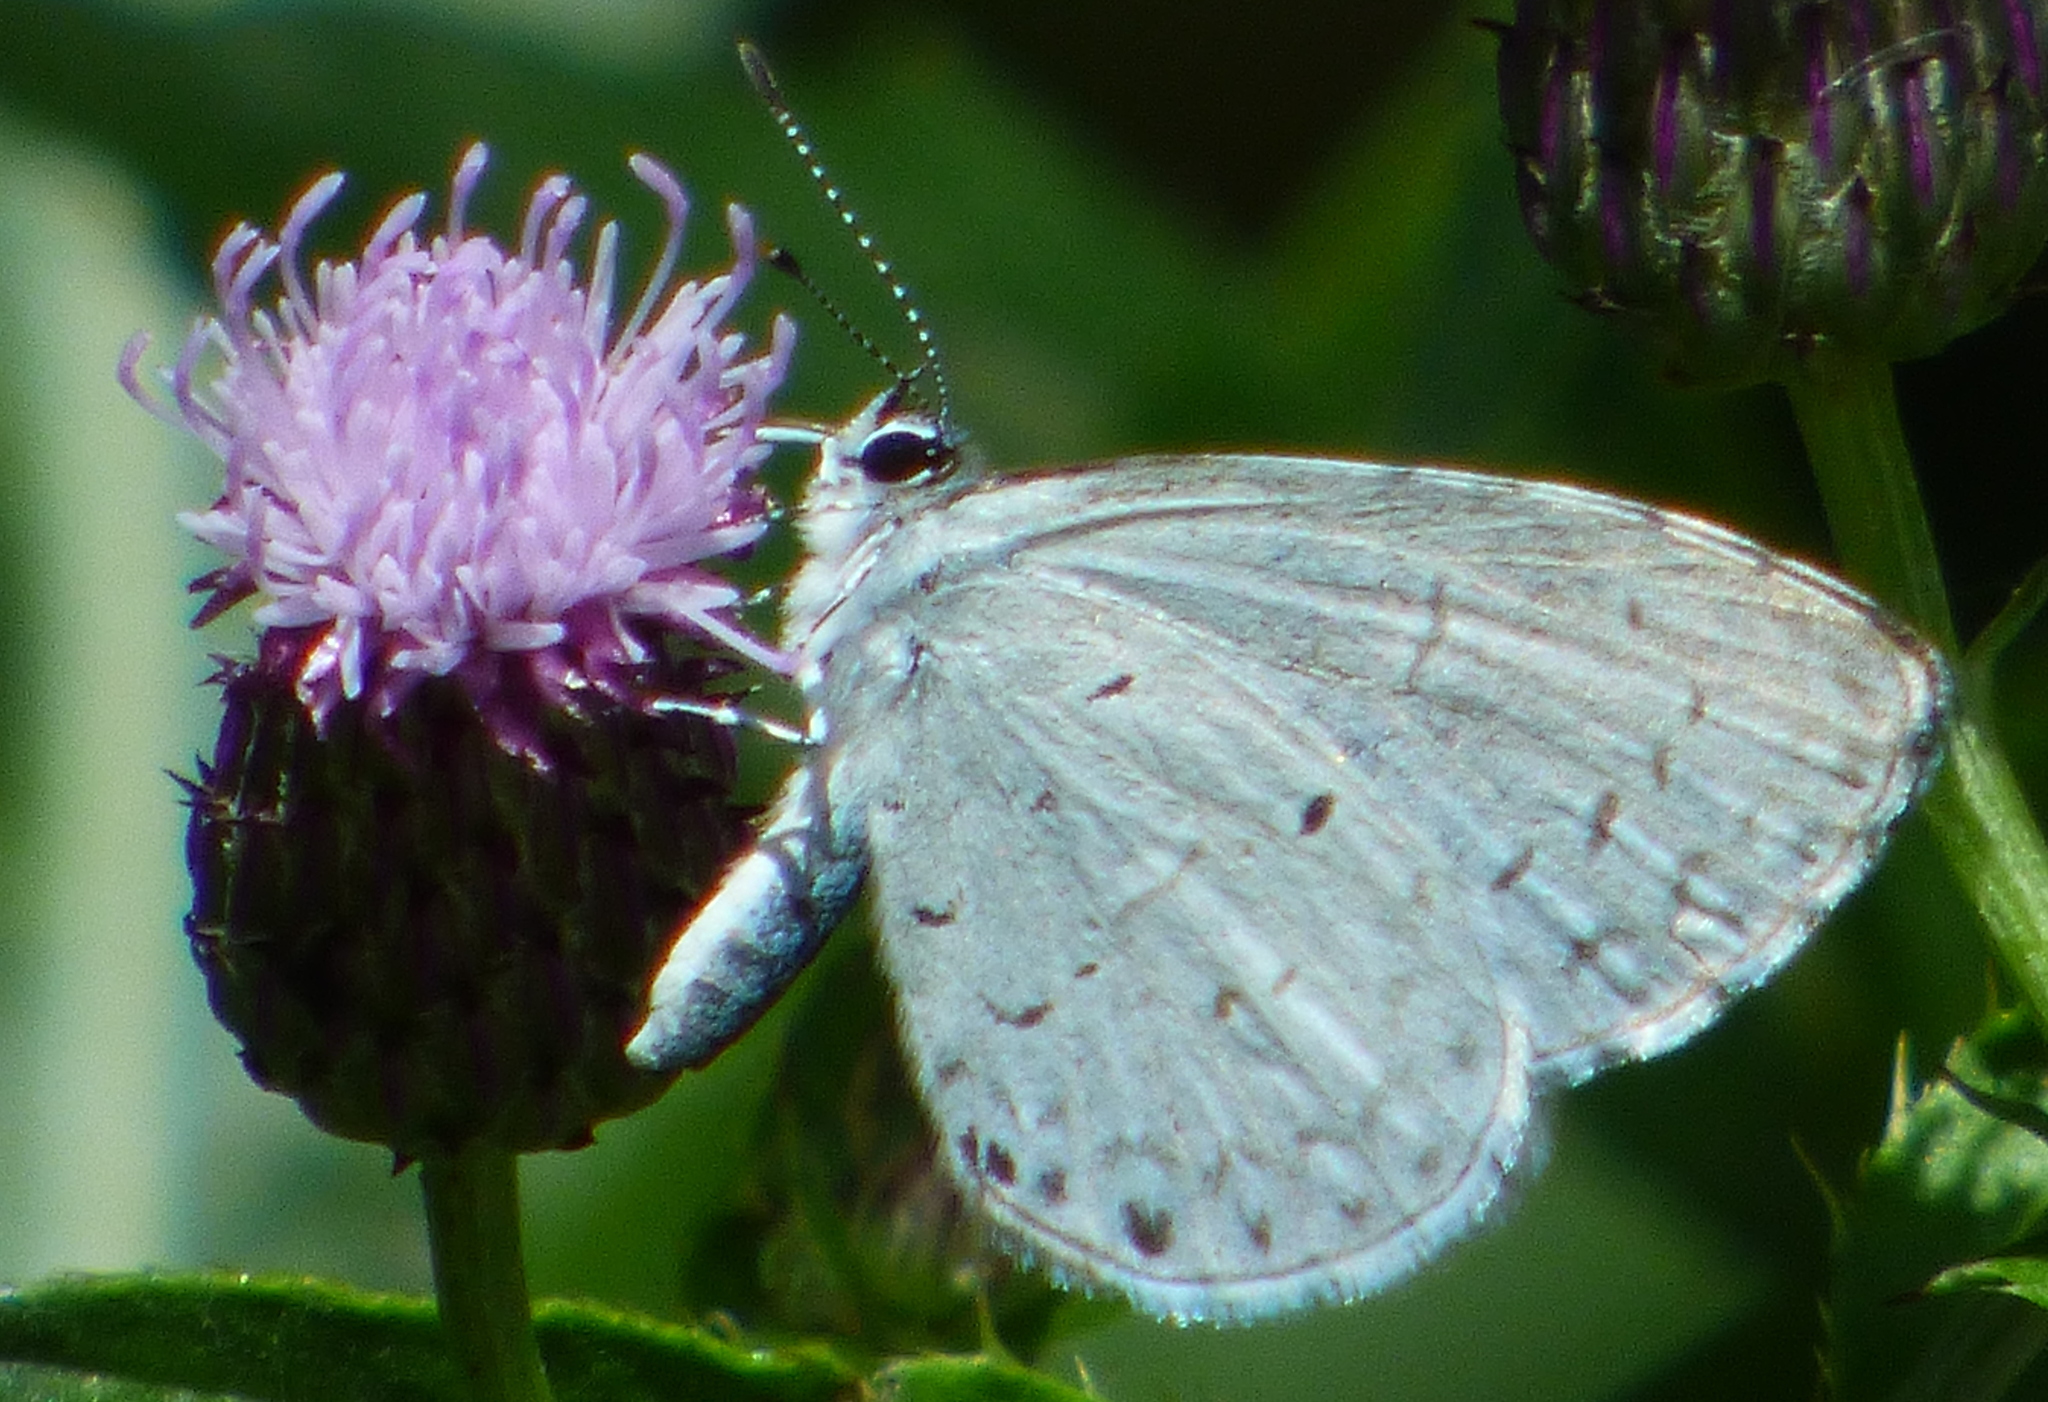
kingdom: Animalia
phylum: Arthropoda
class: Insecta
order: Lepidoptera
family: Lycaenidae
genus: Cyaniris
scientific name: Cyaniris neglecta
